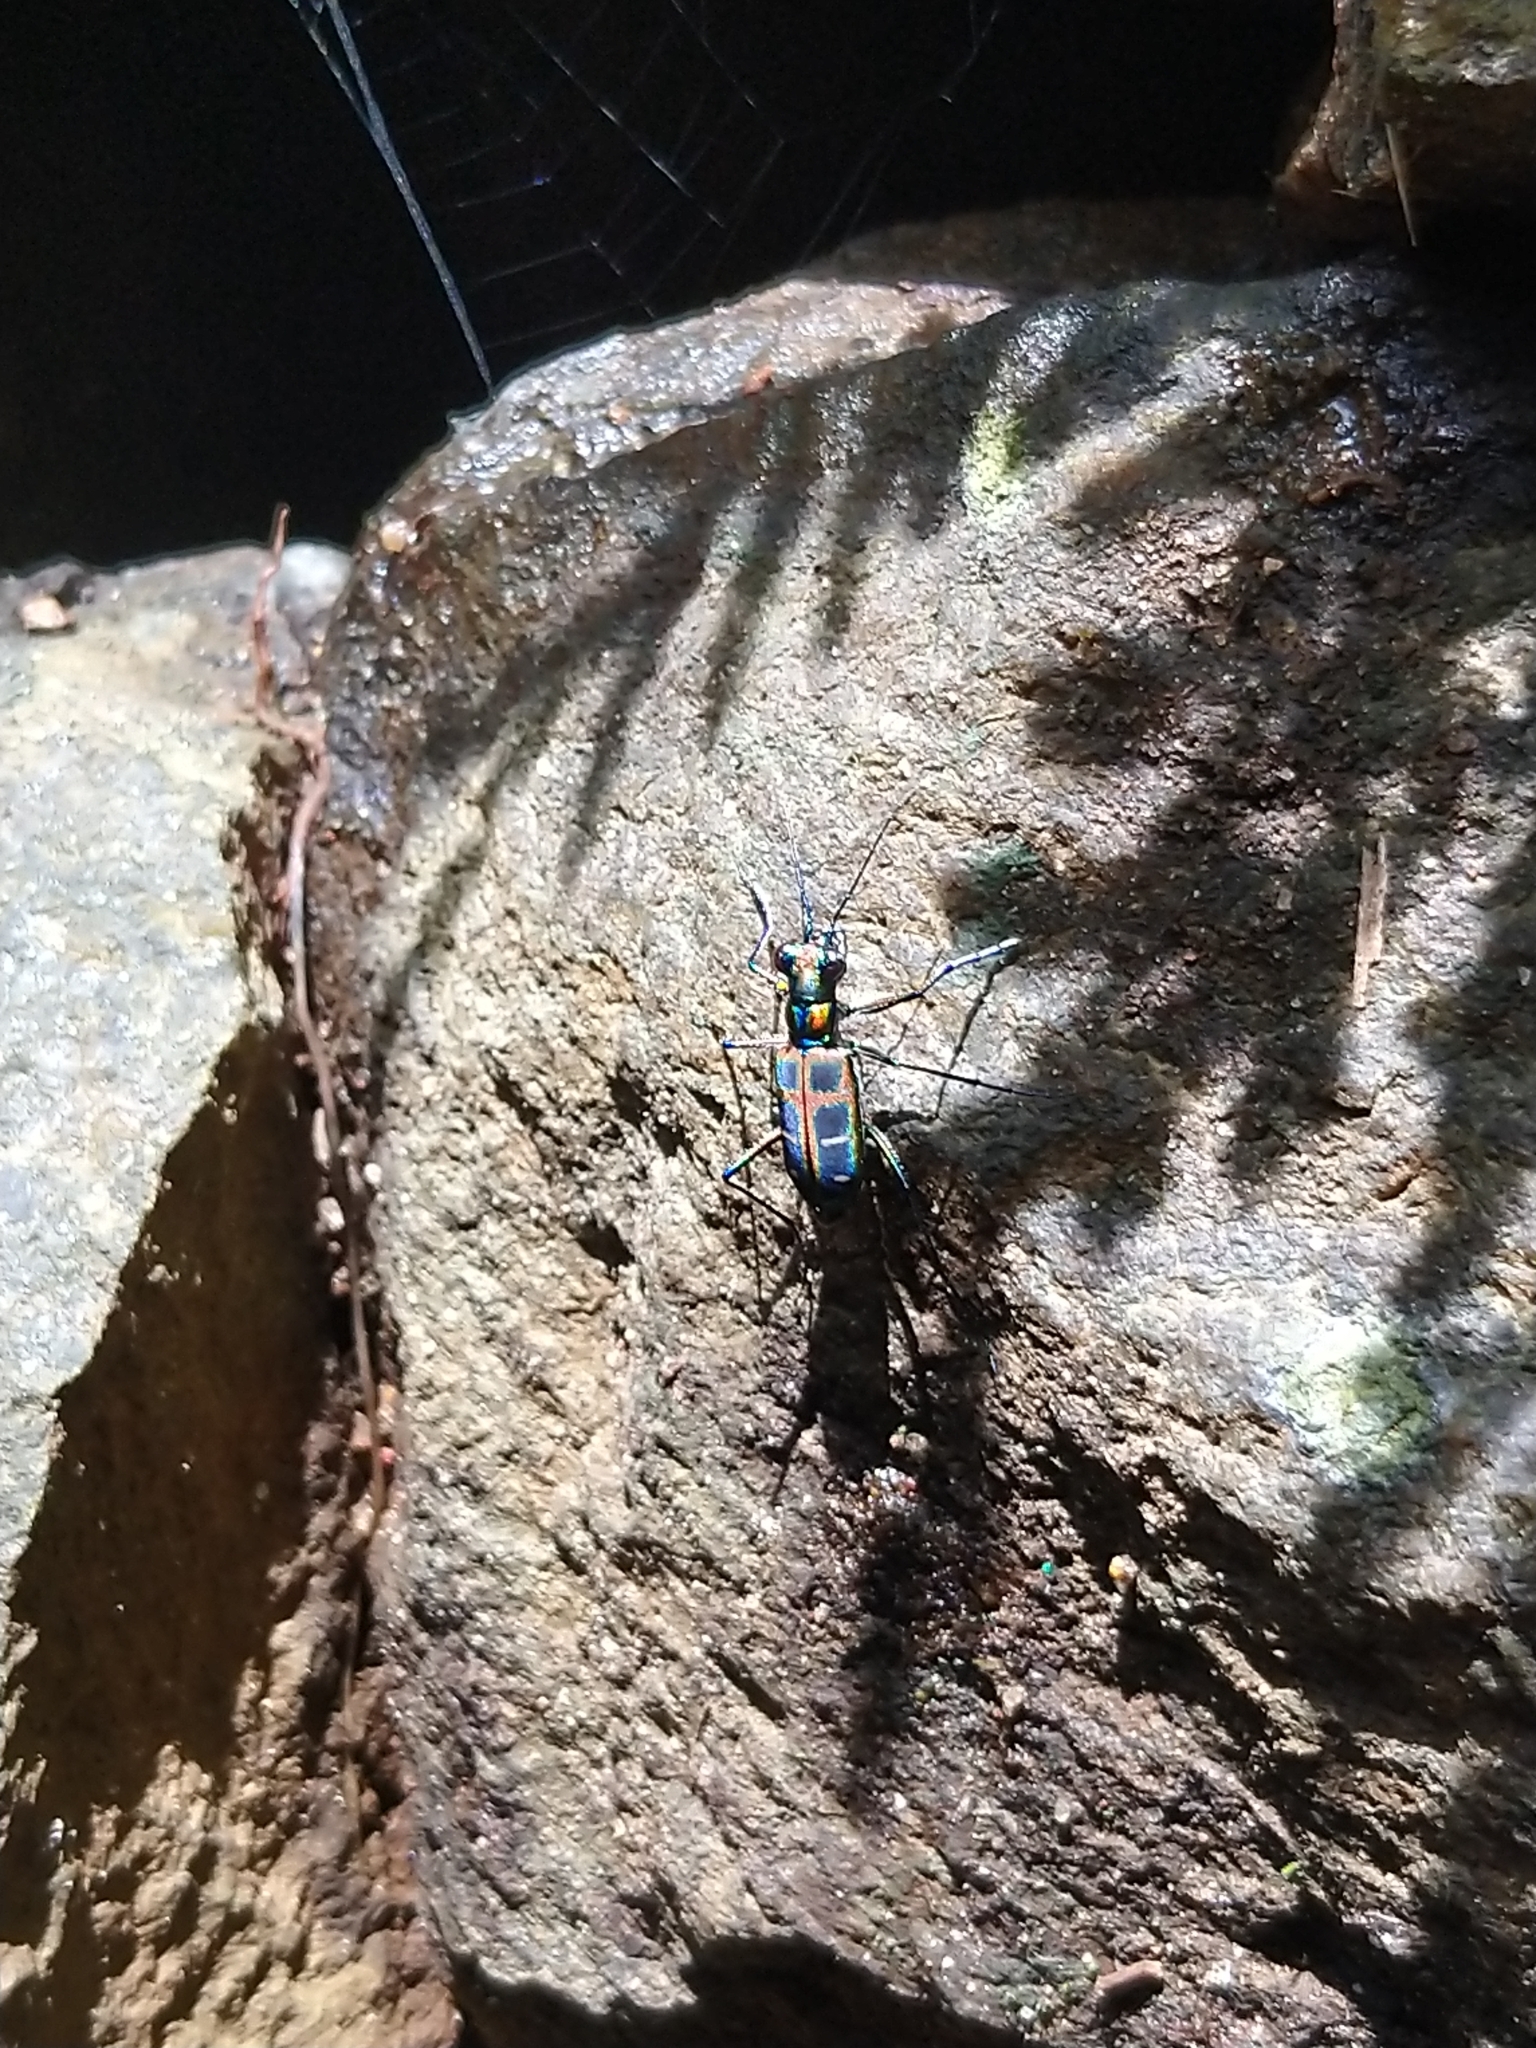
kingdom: Animalia
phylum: Arthropoda
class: Insecta
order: Coleoptera
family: Carabidae
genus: Cicindela
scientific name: Cicindela barmanica
